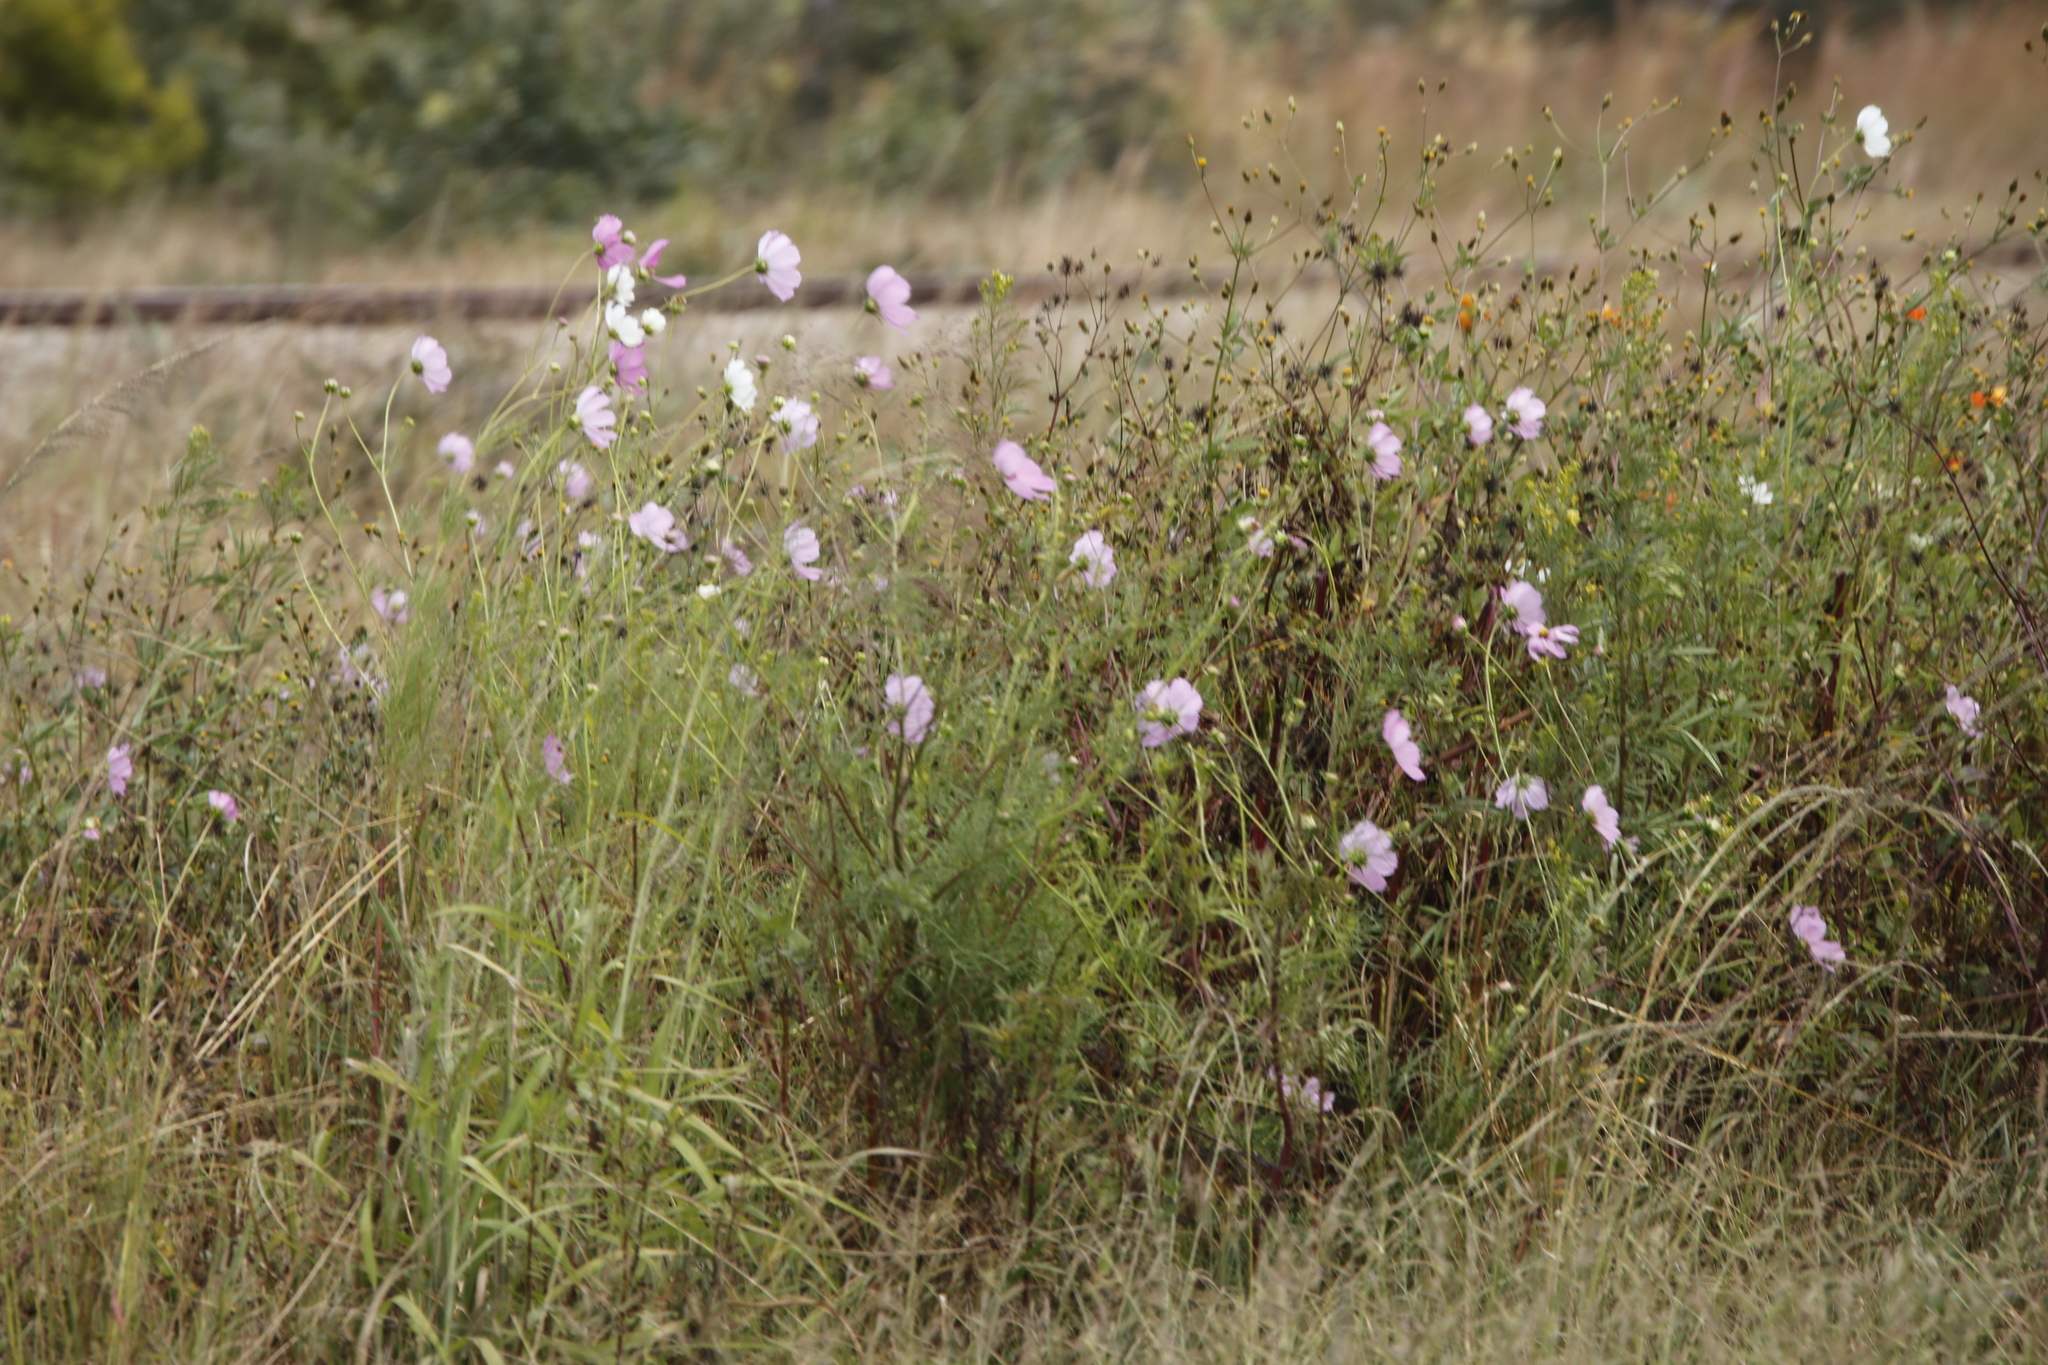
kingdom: Plantae
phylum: Tracheophyta
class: Magnoliopsida
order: Asterales
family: Asteraceae
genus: Cosmos
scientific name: Cosmos bipinnatus
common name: Garden cosmos
